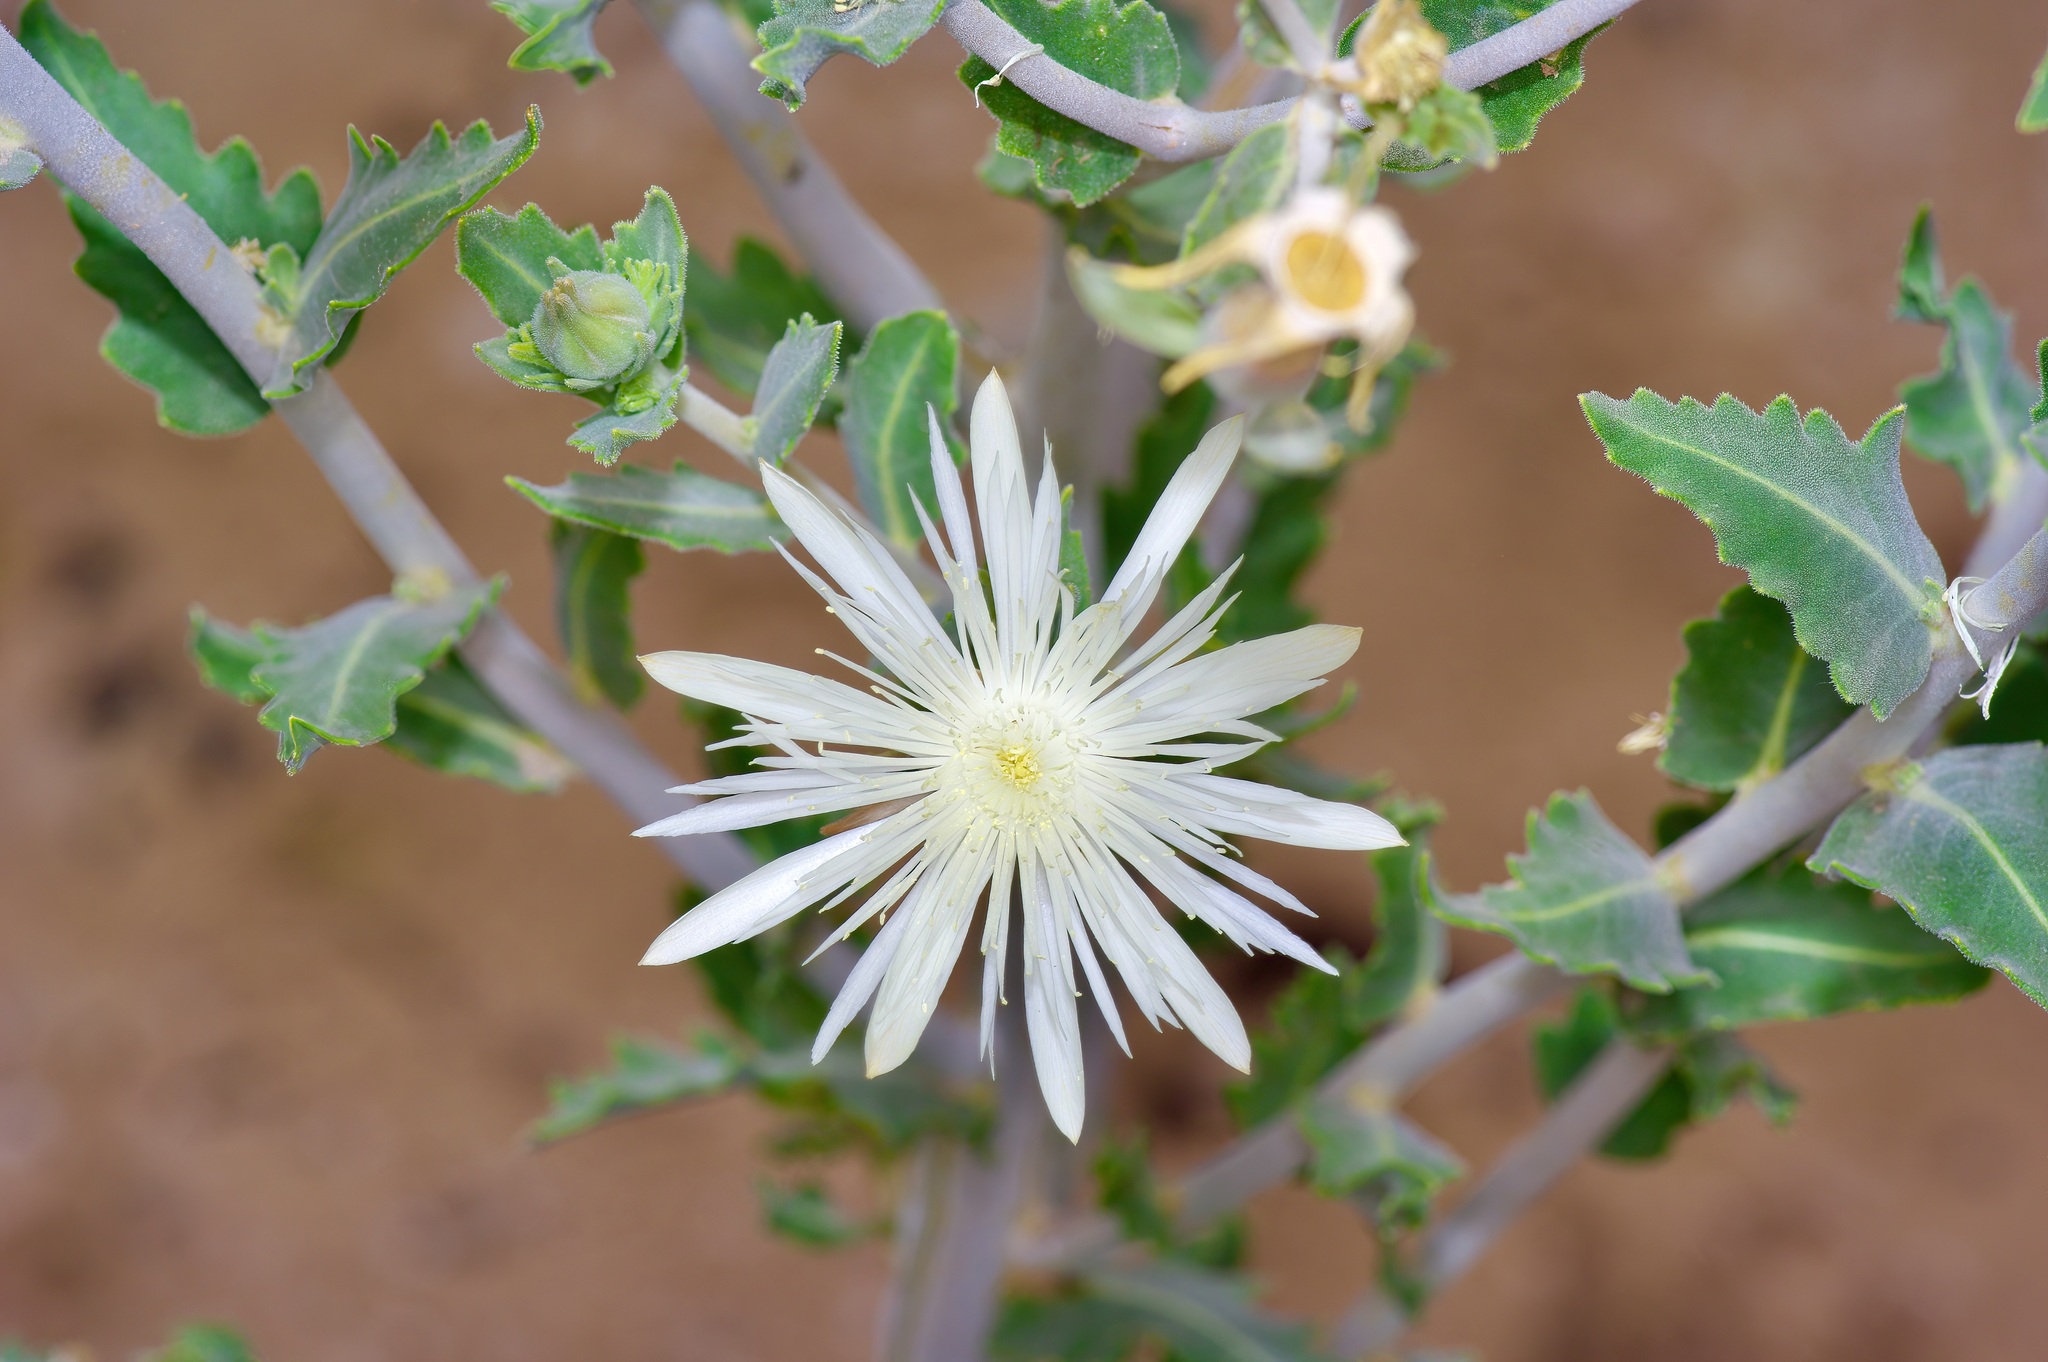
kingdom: Plantae
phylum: Tracheophyta
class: Magnoliopsida
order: Cornales
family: Loasaceae
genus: Mentzelia
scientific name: Mentzelia strictissima
